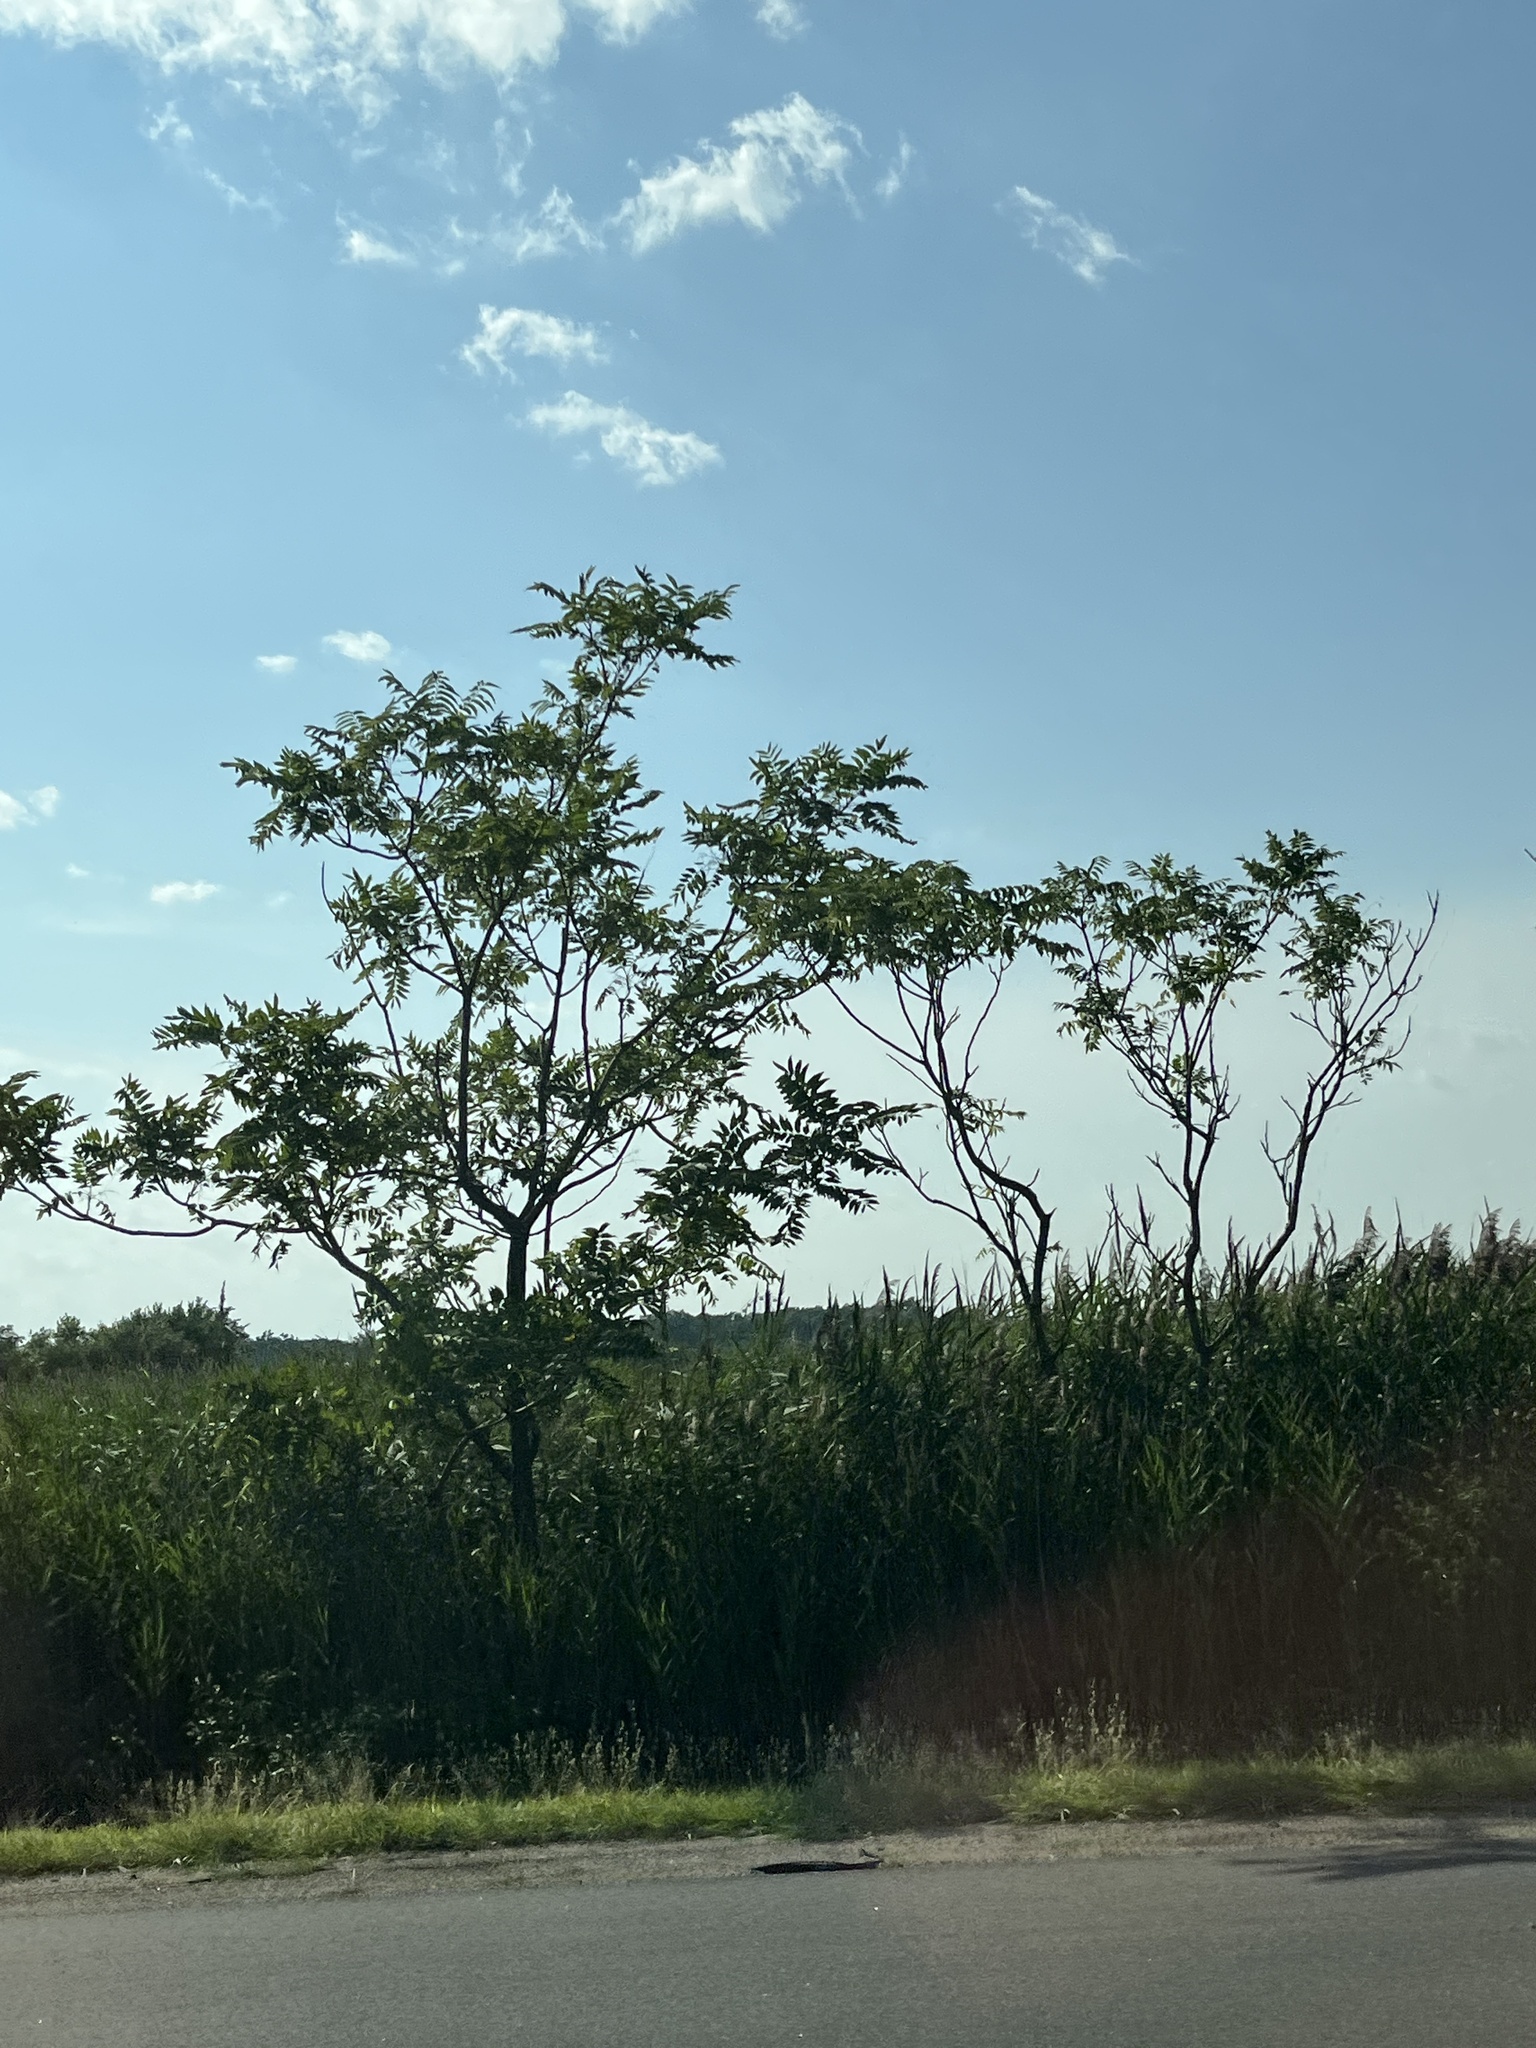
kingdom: Plantae
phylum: Tracheophyta
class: Magnoliopsida
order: Sapindales
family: Simaroubaceae
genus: Ailanthus
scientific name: Ailanthus altissima
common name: Tree-of-heaven
